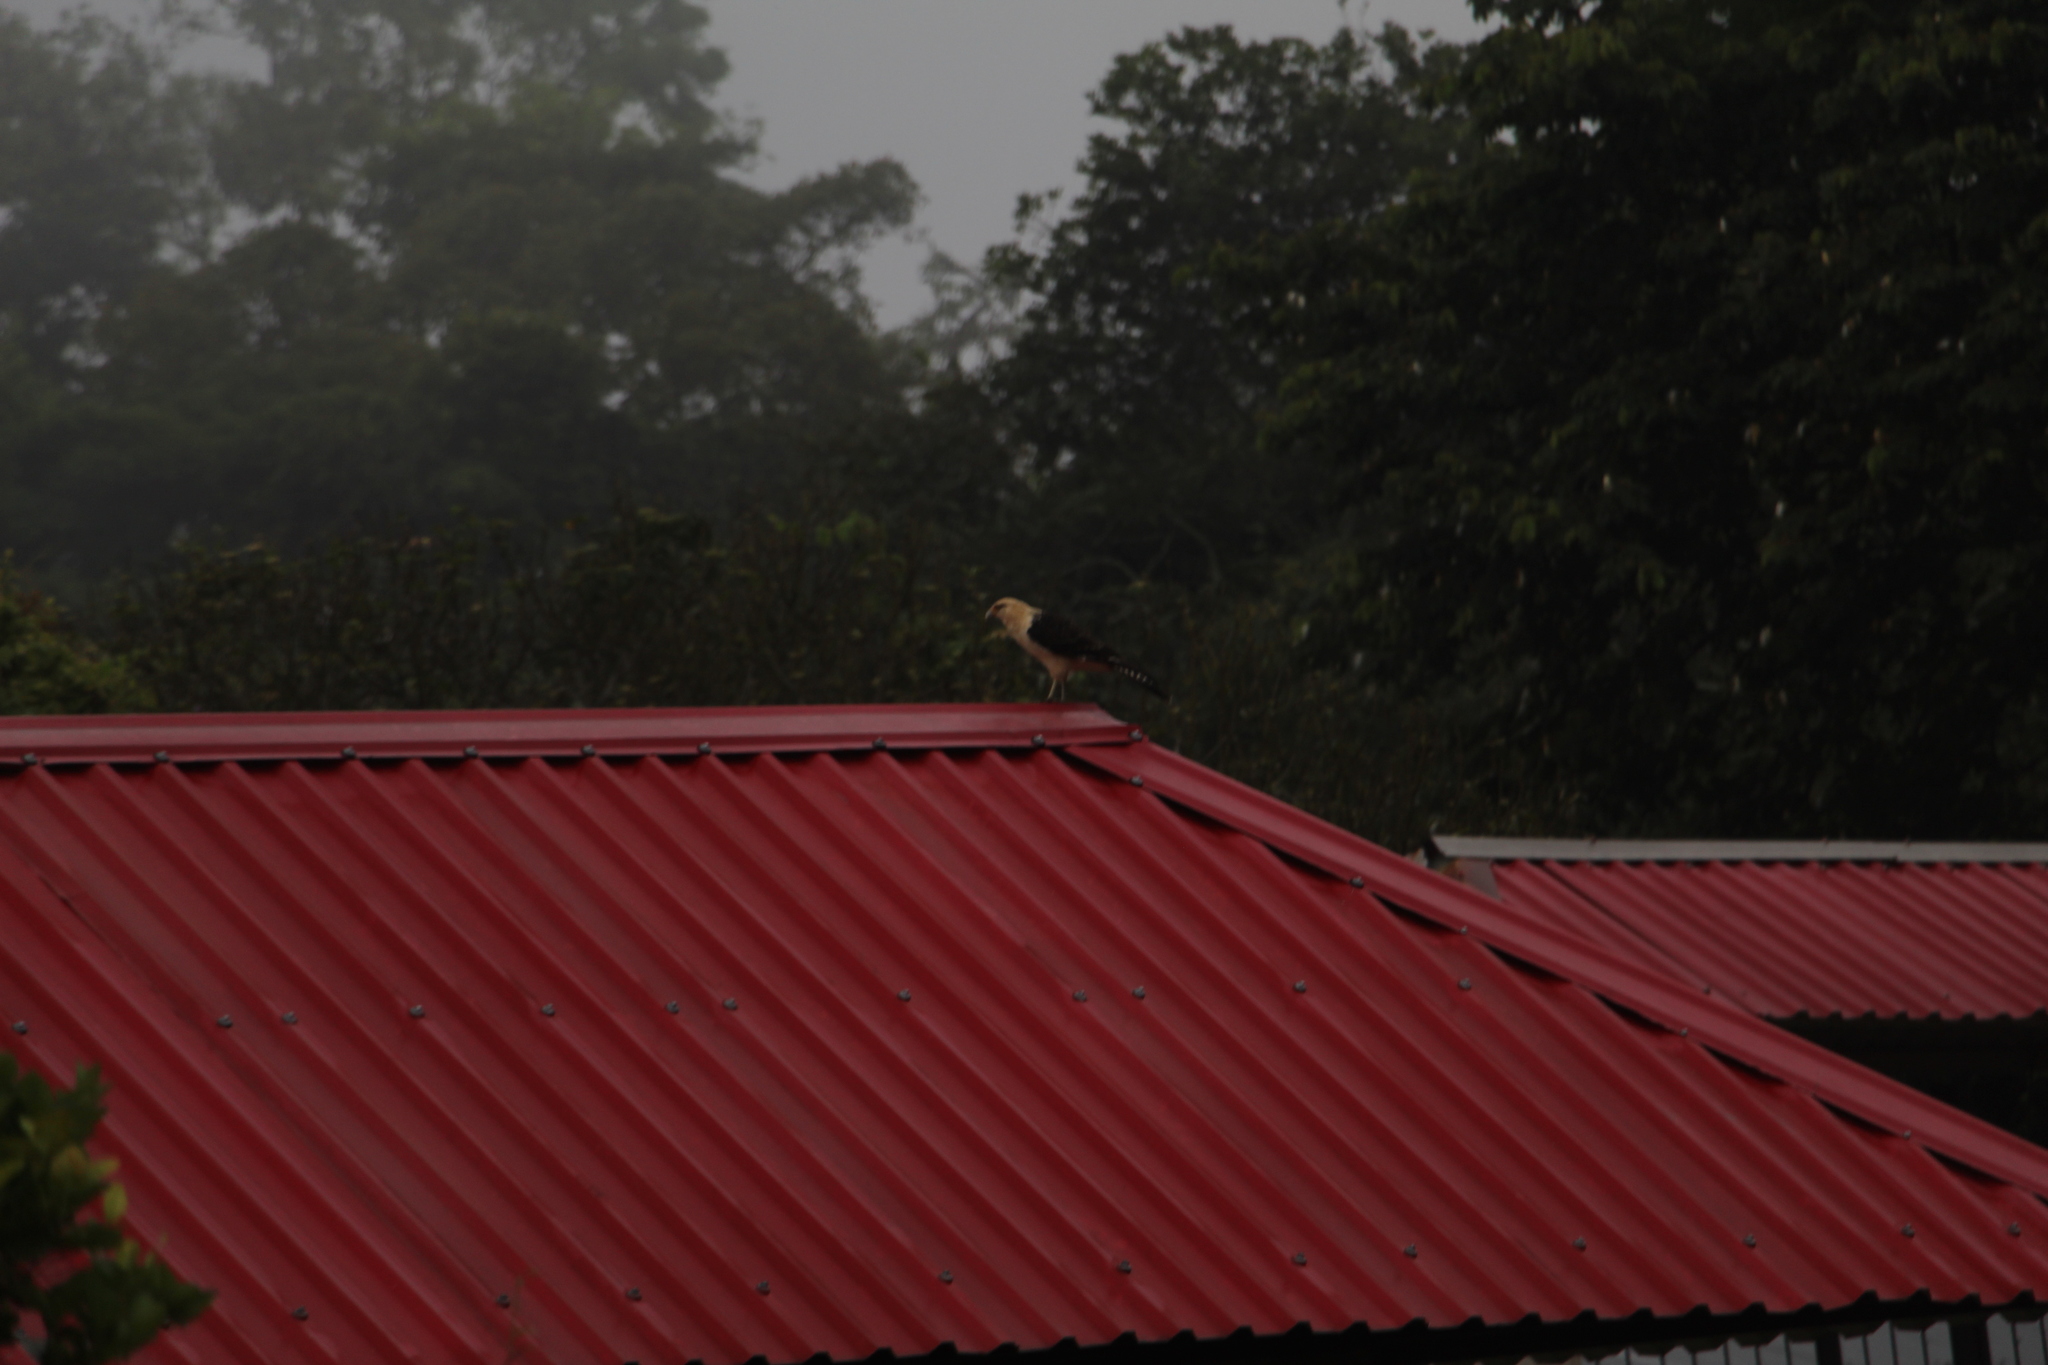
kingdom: Animalia
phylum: Chordata
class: Aves
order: Falconiformes
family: Falconidae
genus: Daptrius
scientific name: Daptrius
